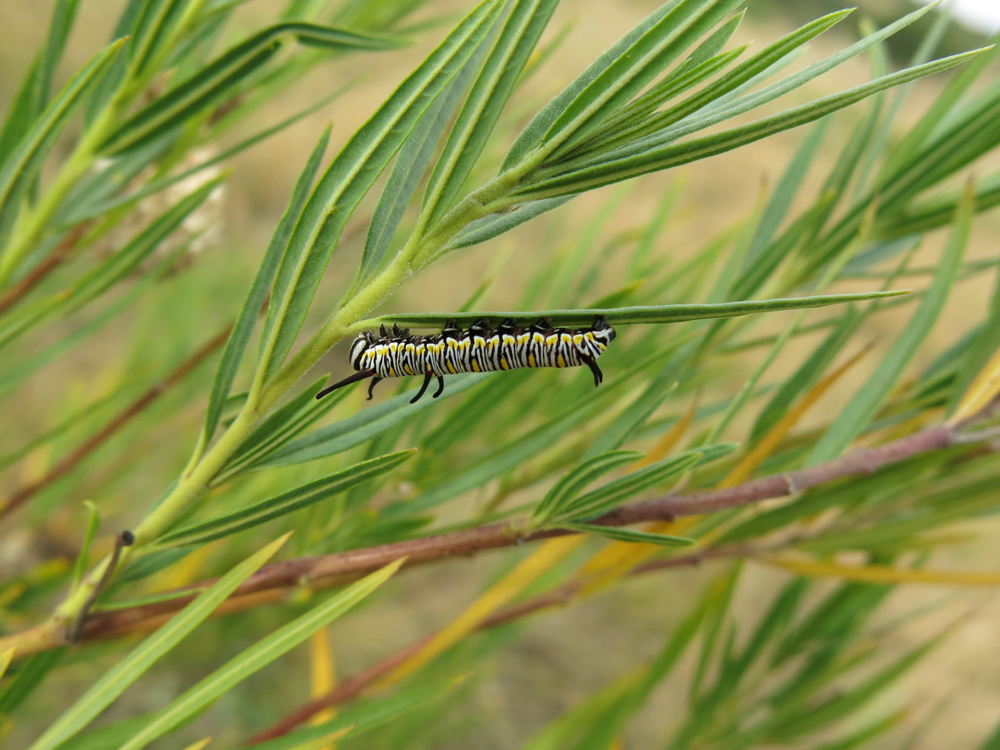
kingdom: Animalia
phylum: Arthropoda
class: Insecta
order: Lepidoptera
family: Nymphalidae
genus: Danaus
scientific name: Danaus chrysippus
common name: Plain tiger
